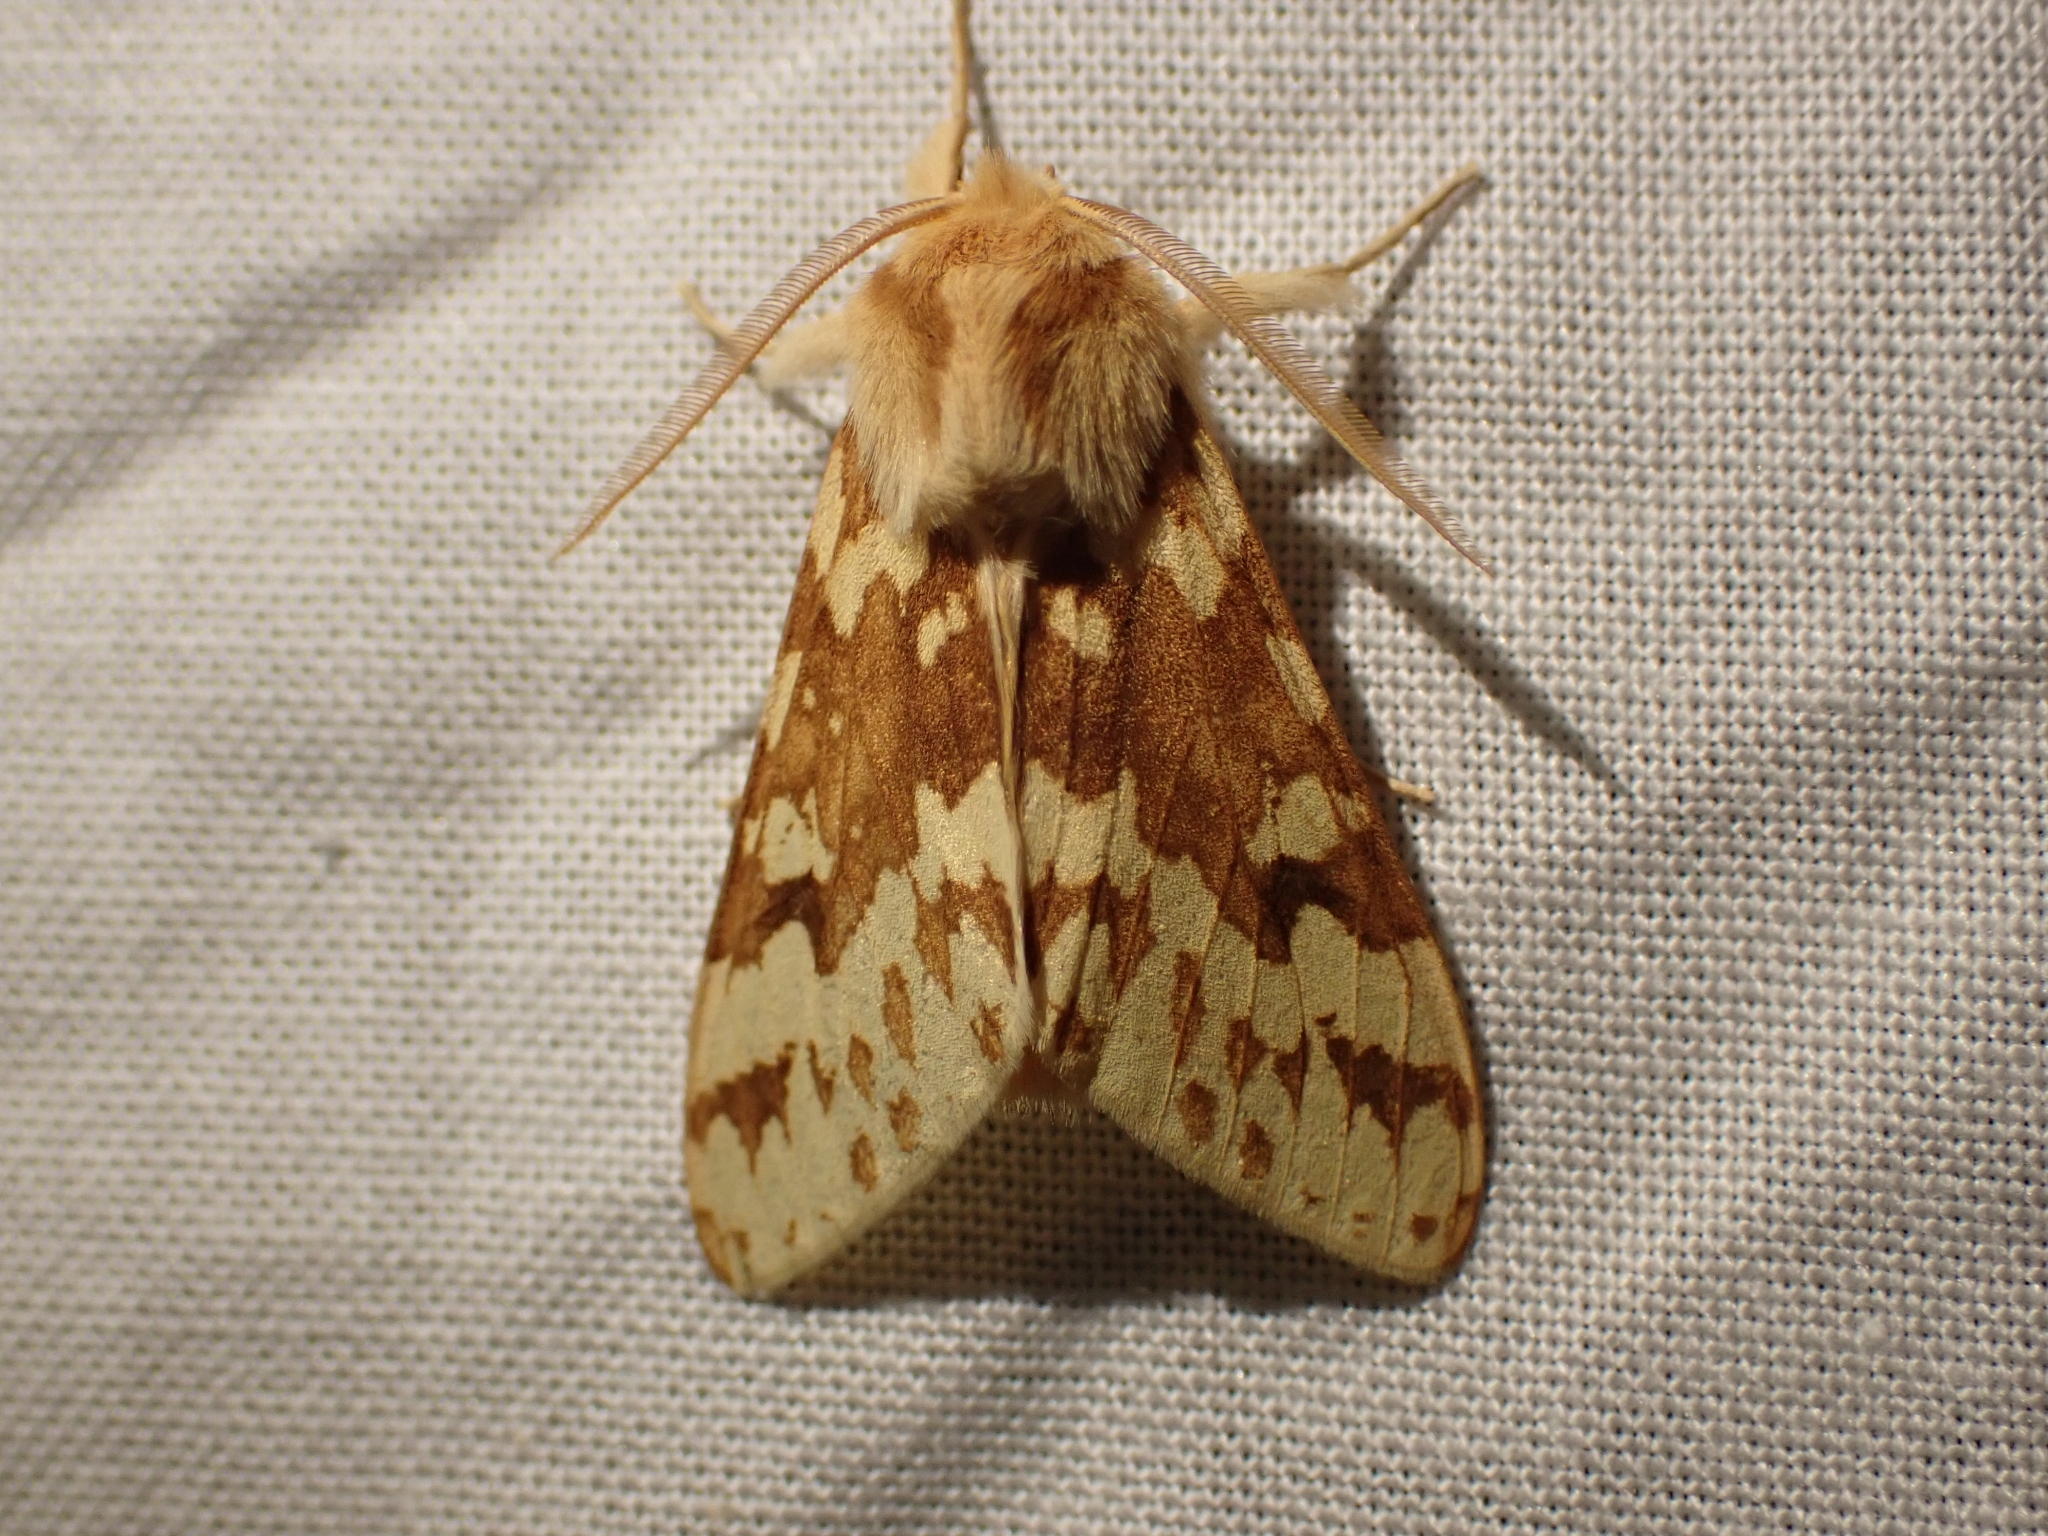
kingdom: Animalia
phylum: Arthropoda
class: Insecta
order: Lepidoptera
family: Erebidae
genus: Lophocampa
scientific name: Lophocampa maculata
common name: Spotted tussock moth
